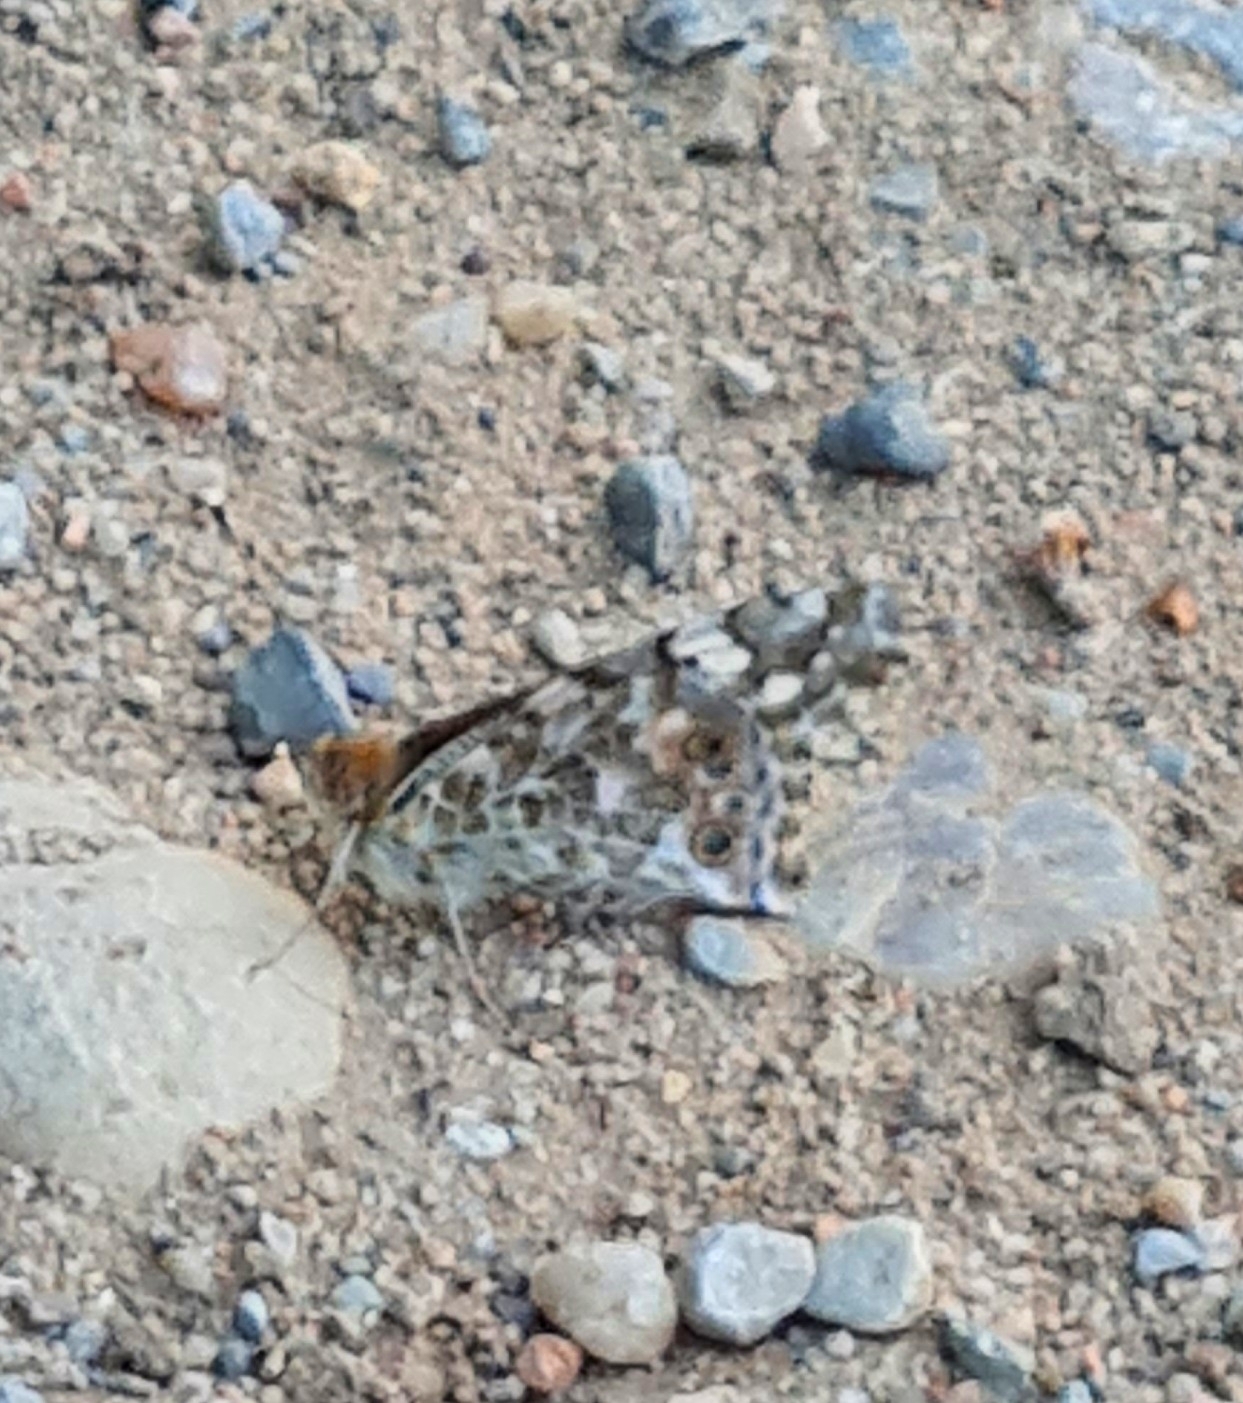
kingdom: Animalia
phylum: Arthropoda
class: Insecta
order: Lepidoptera
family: Nymphalidae
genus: Vanessa
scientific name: Vanessa cardui
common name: Painted lady
